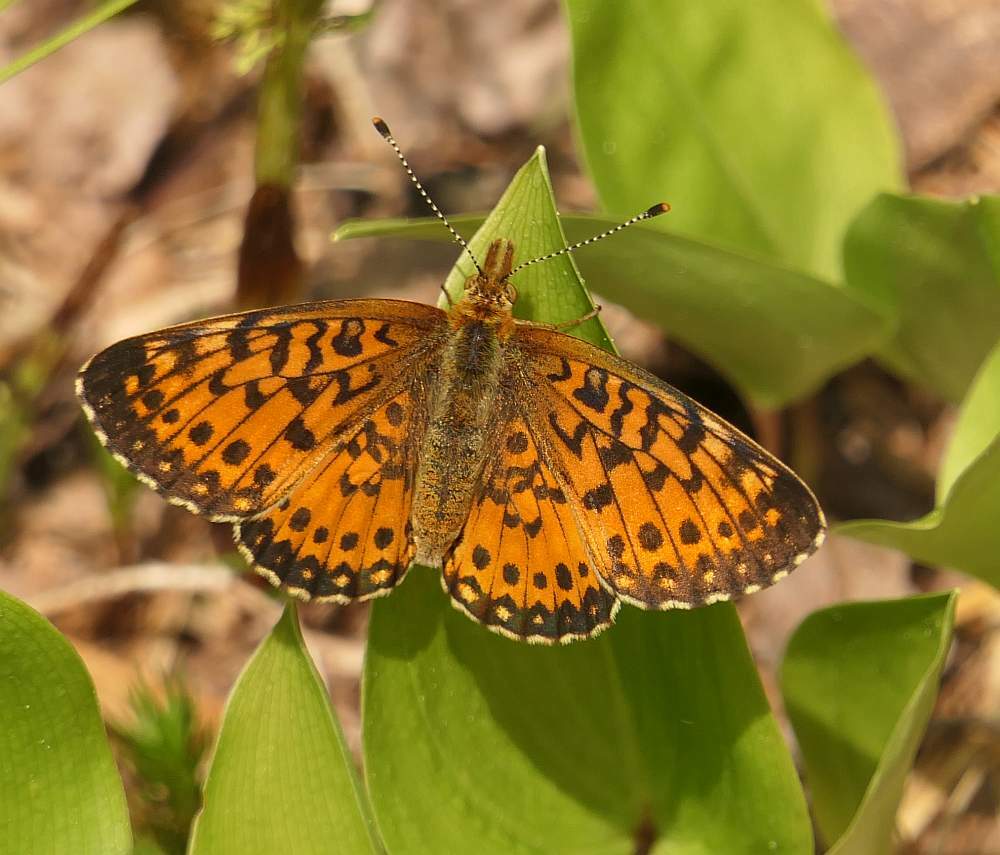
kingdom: Animalia
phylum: Arthropoda
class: Insecta
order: Lepidoptera
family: Nymphalidae
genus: Boloria
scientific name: Boloria
